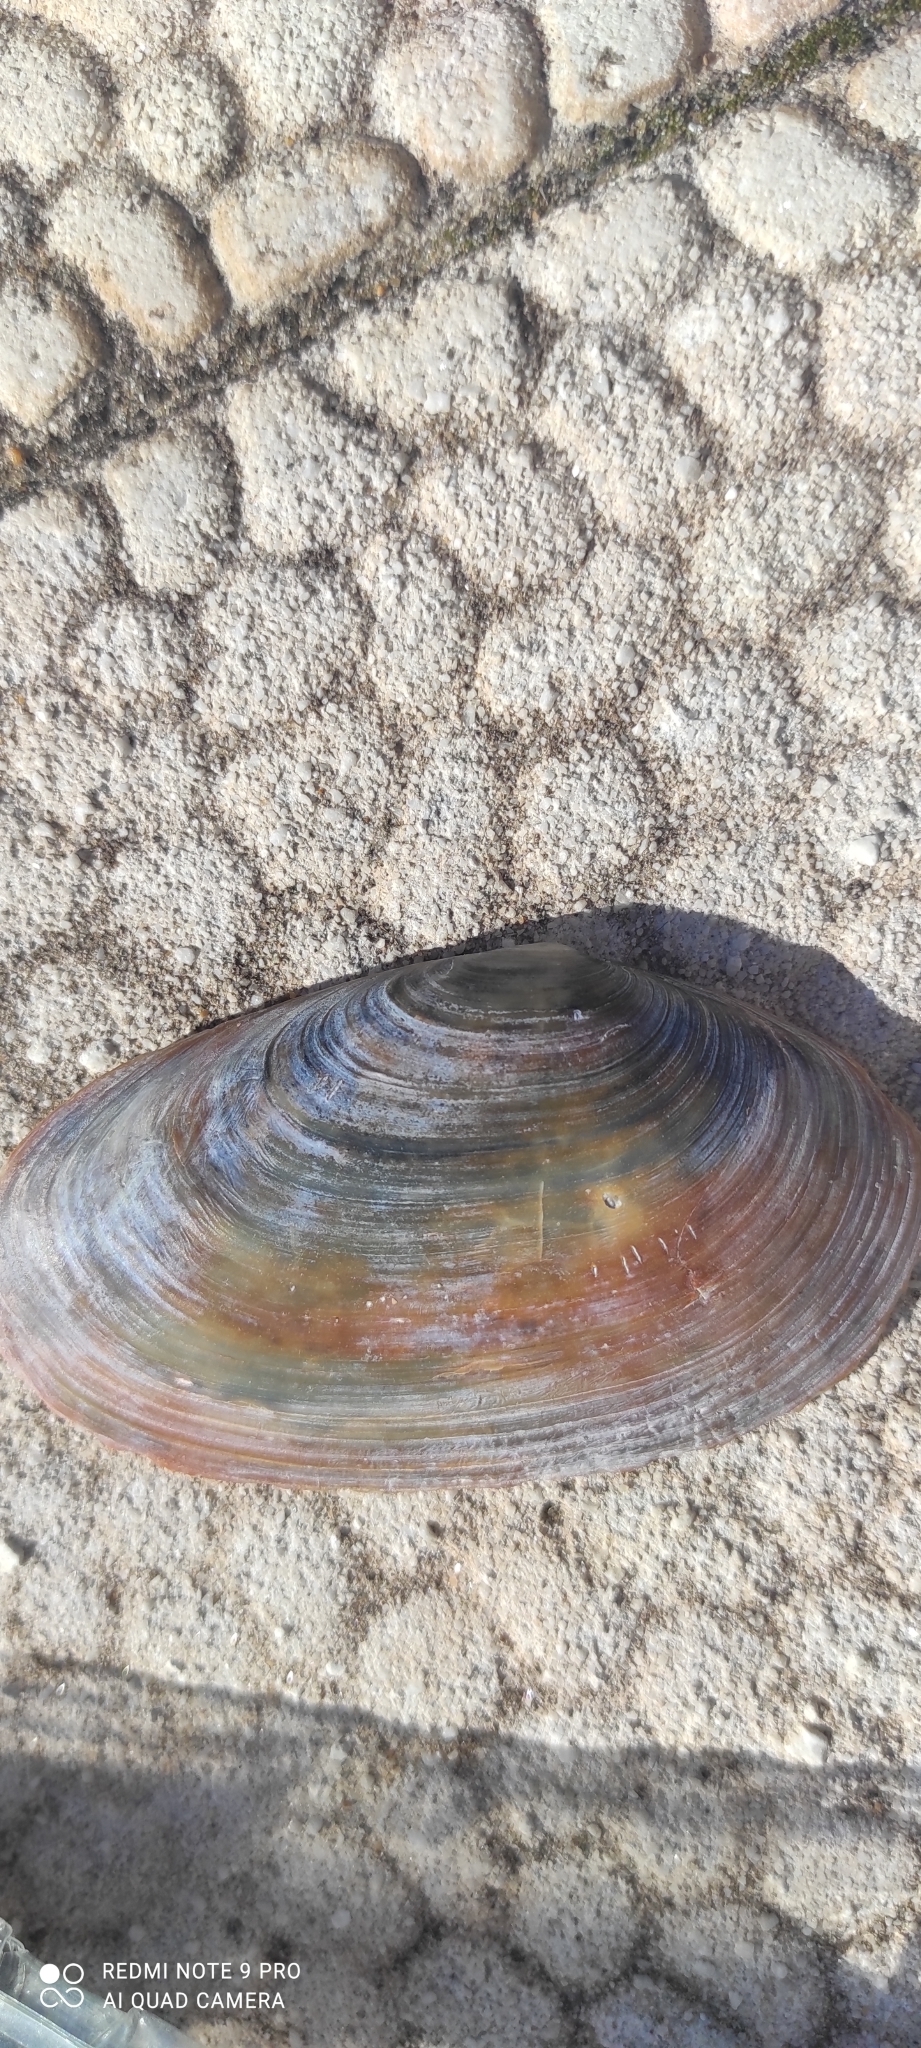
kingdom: Animalia
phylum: Mollusca
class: Bivalvia
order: Venerida
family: Mactridae
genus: Lutraria
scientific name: Lutraria lutraria
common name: Common otter shell
